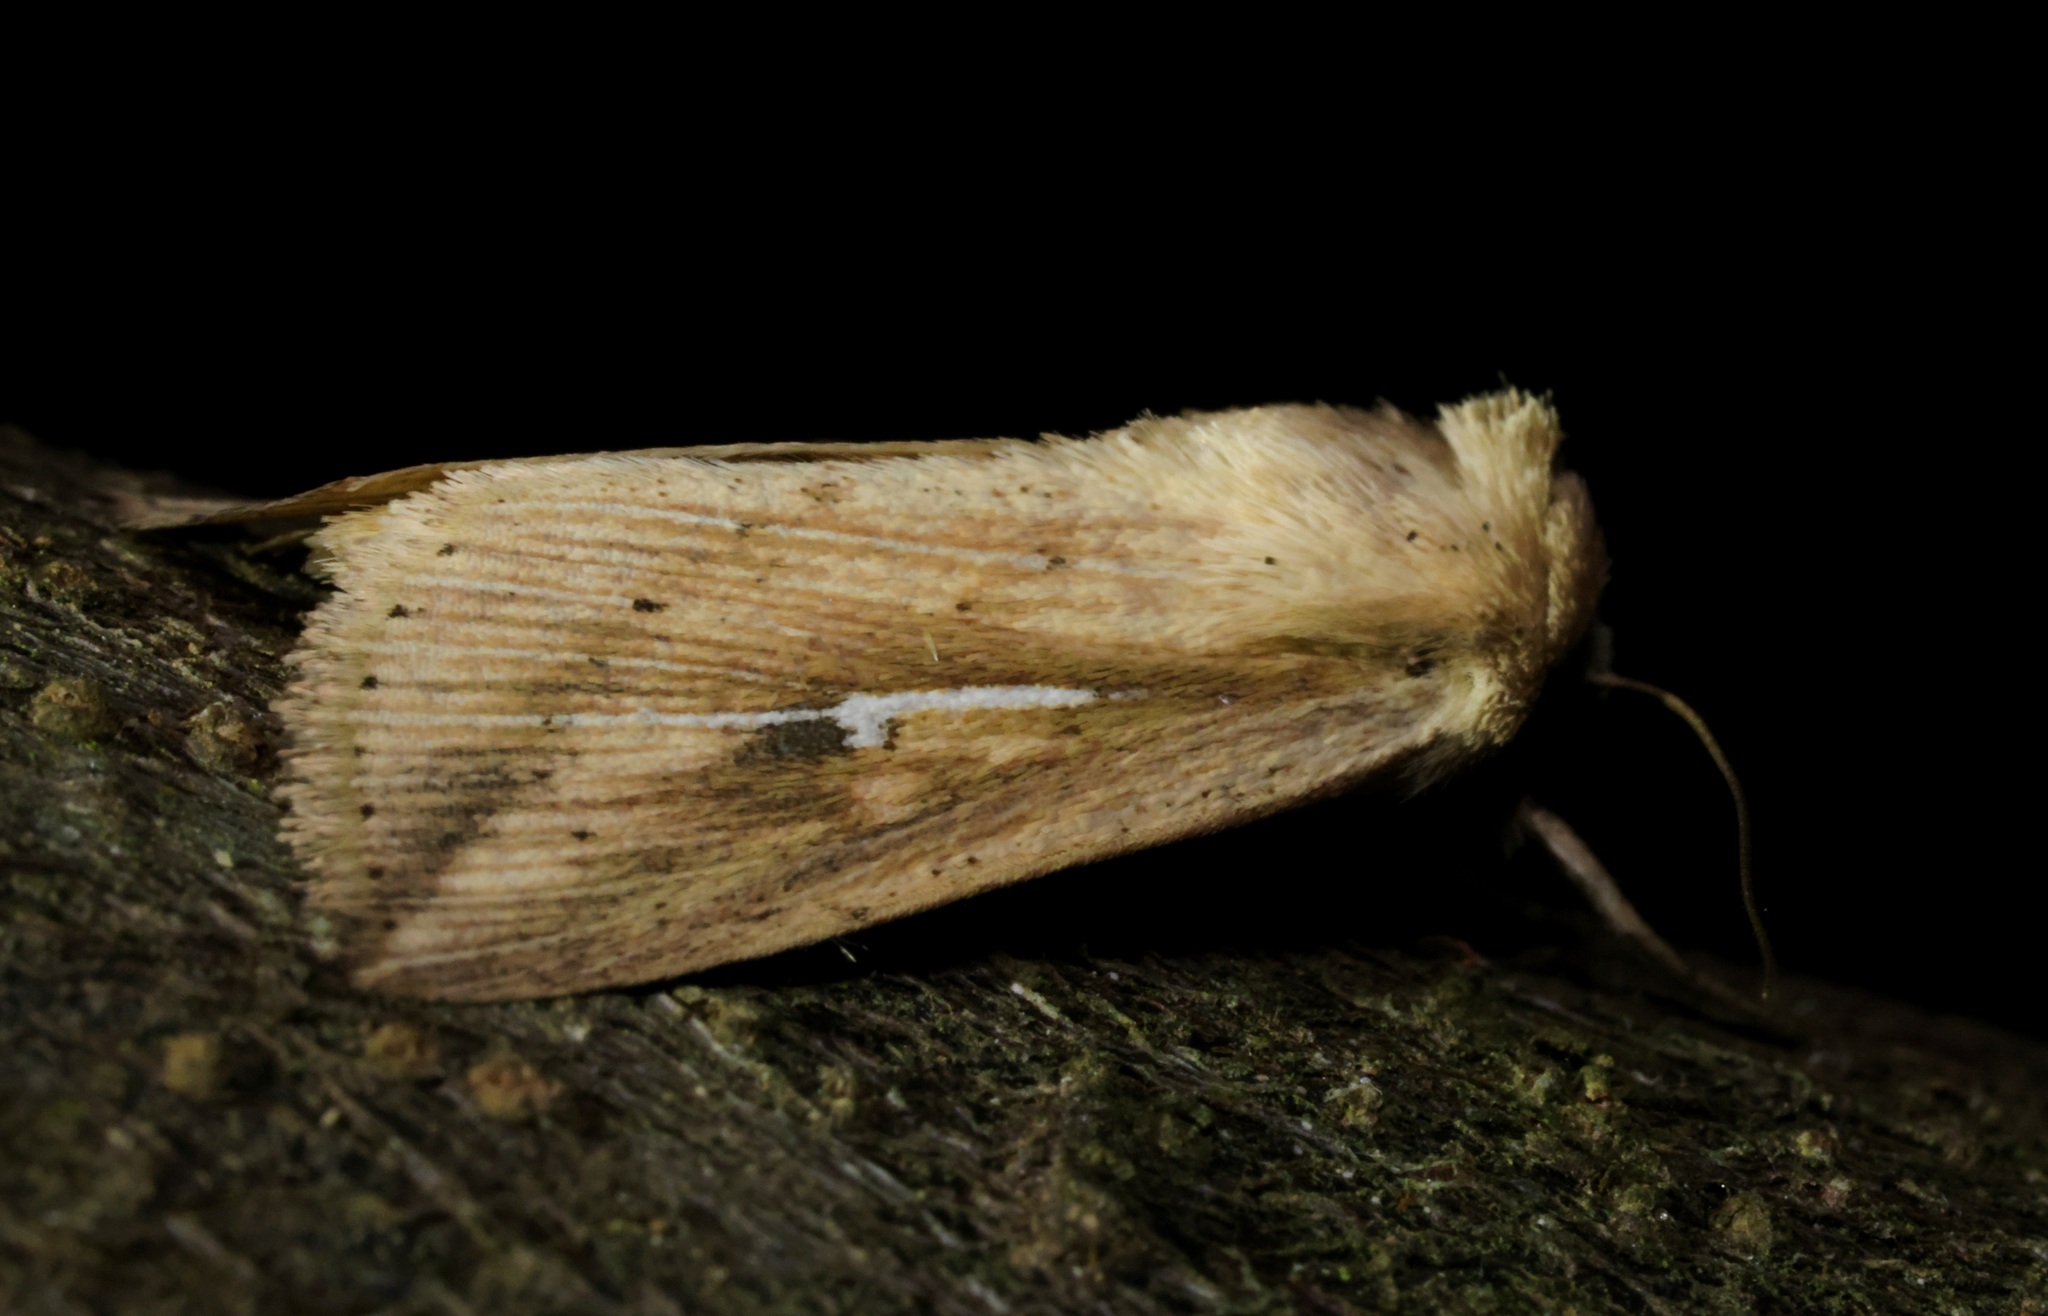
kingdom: Animalia
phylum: Arthropoda
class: Insecta
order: Lepidoptera
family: Noctuidae
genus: Mythimna
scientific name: Mythimna decisissima
